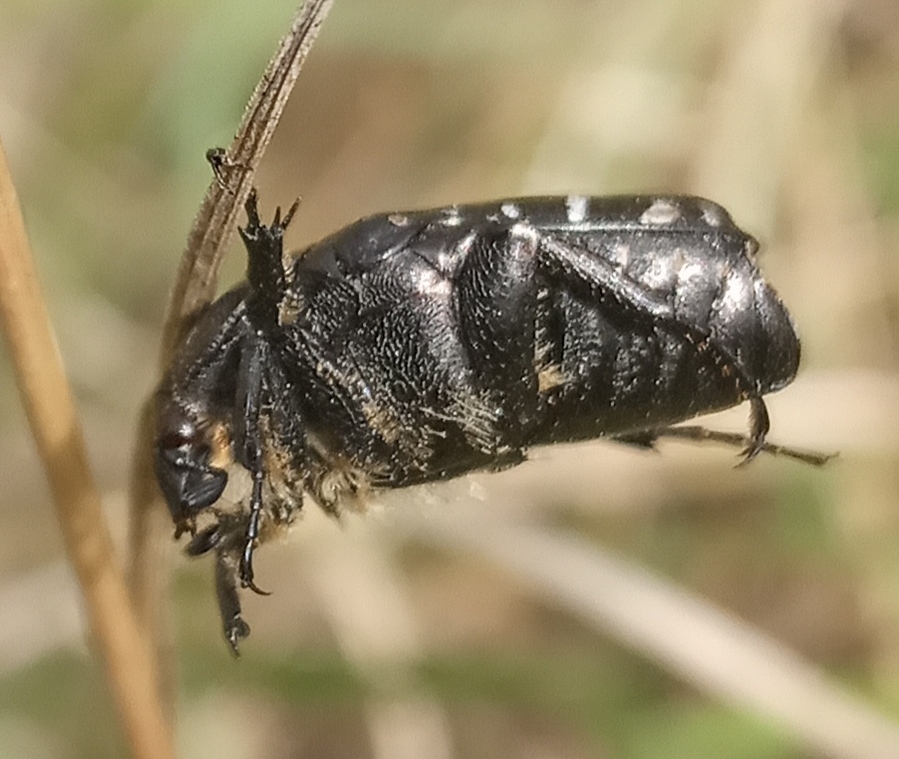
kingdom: Animalia
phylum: Arthropoda
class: Insecta
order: Coleoptera
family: Scarabaeidae
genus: Oxythyrea
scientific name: Oxythyrea funesta
